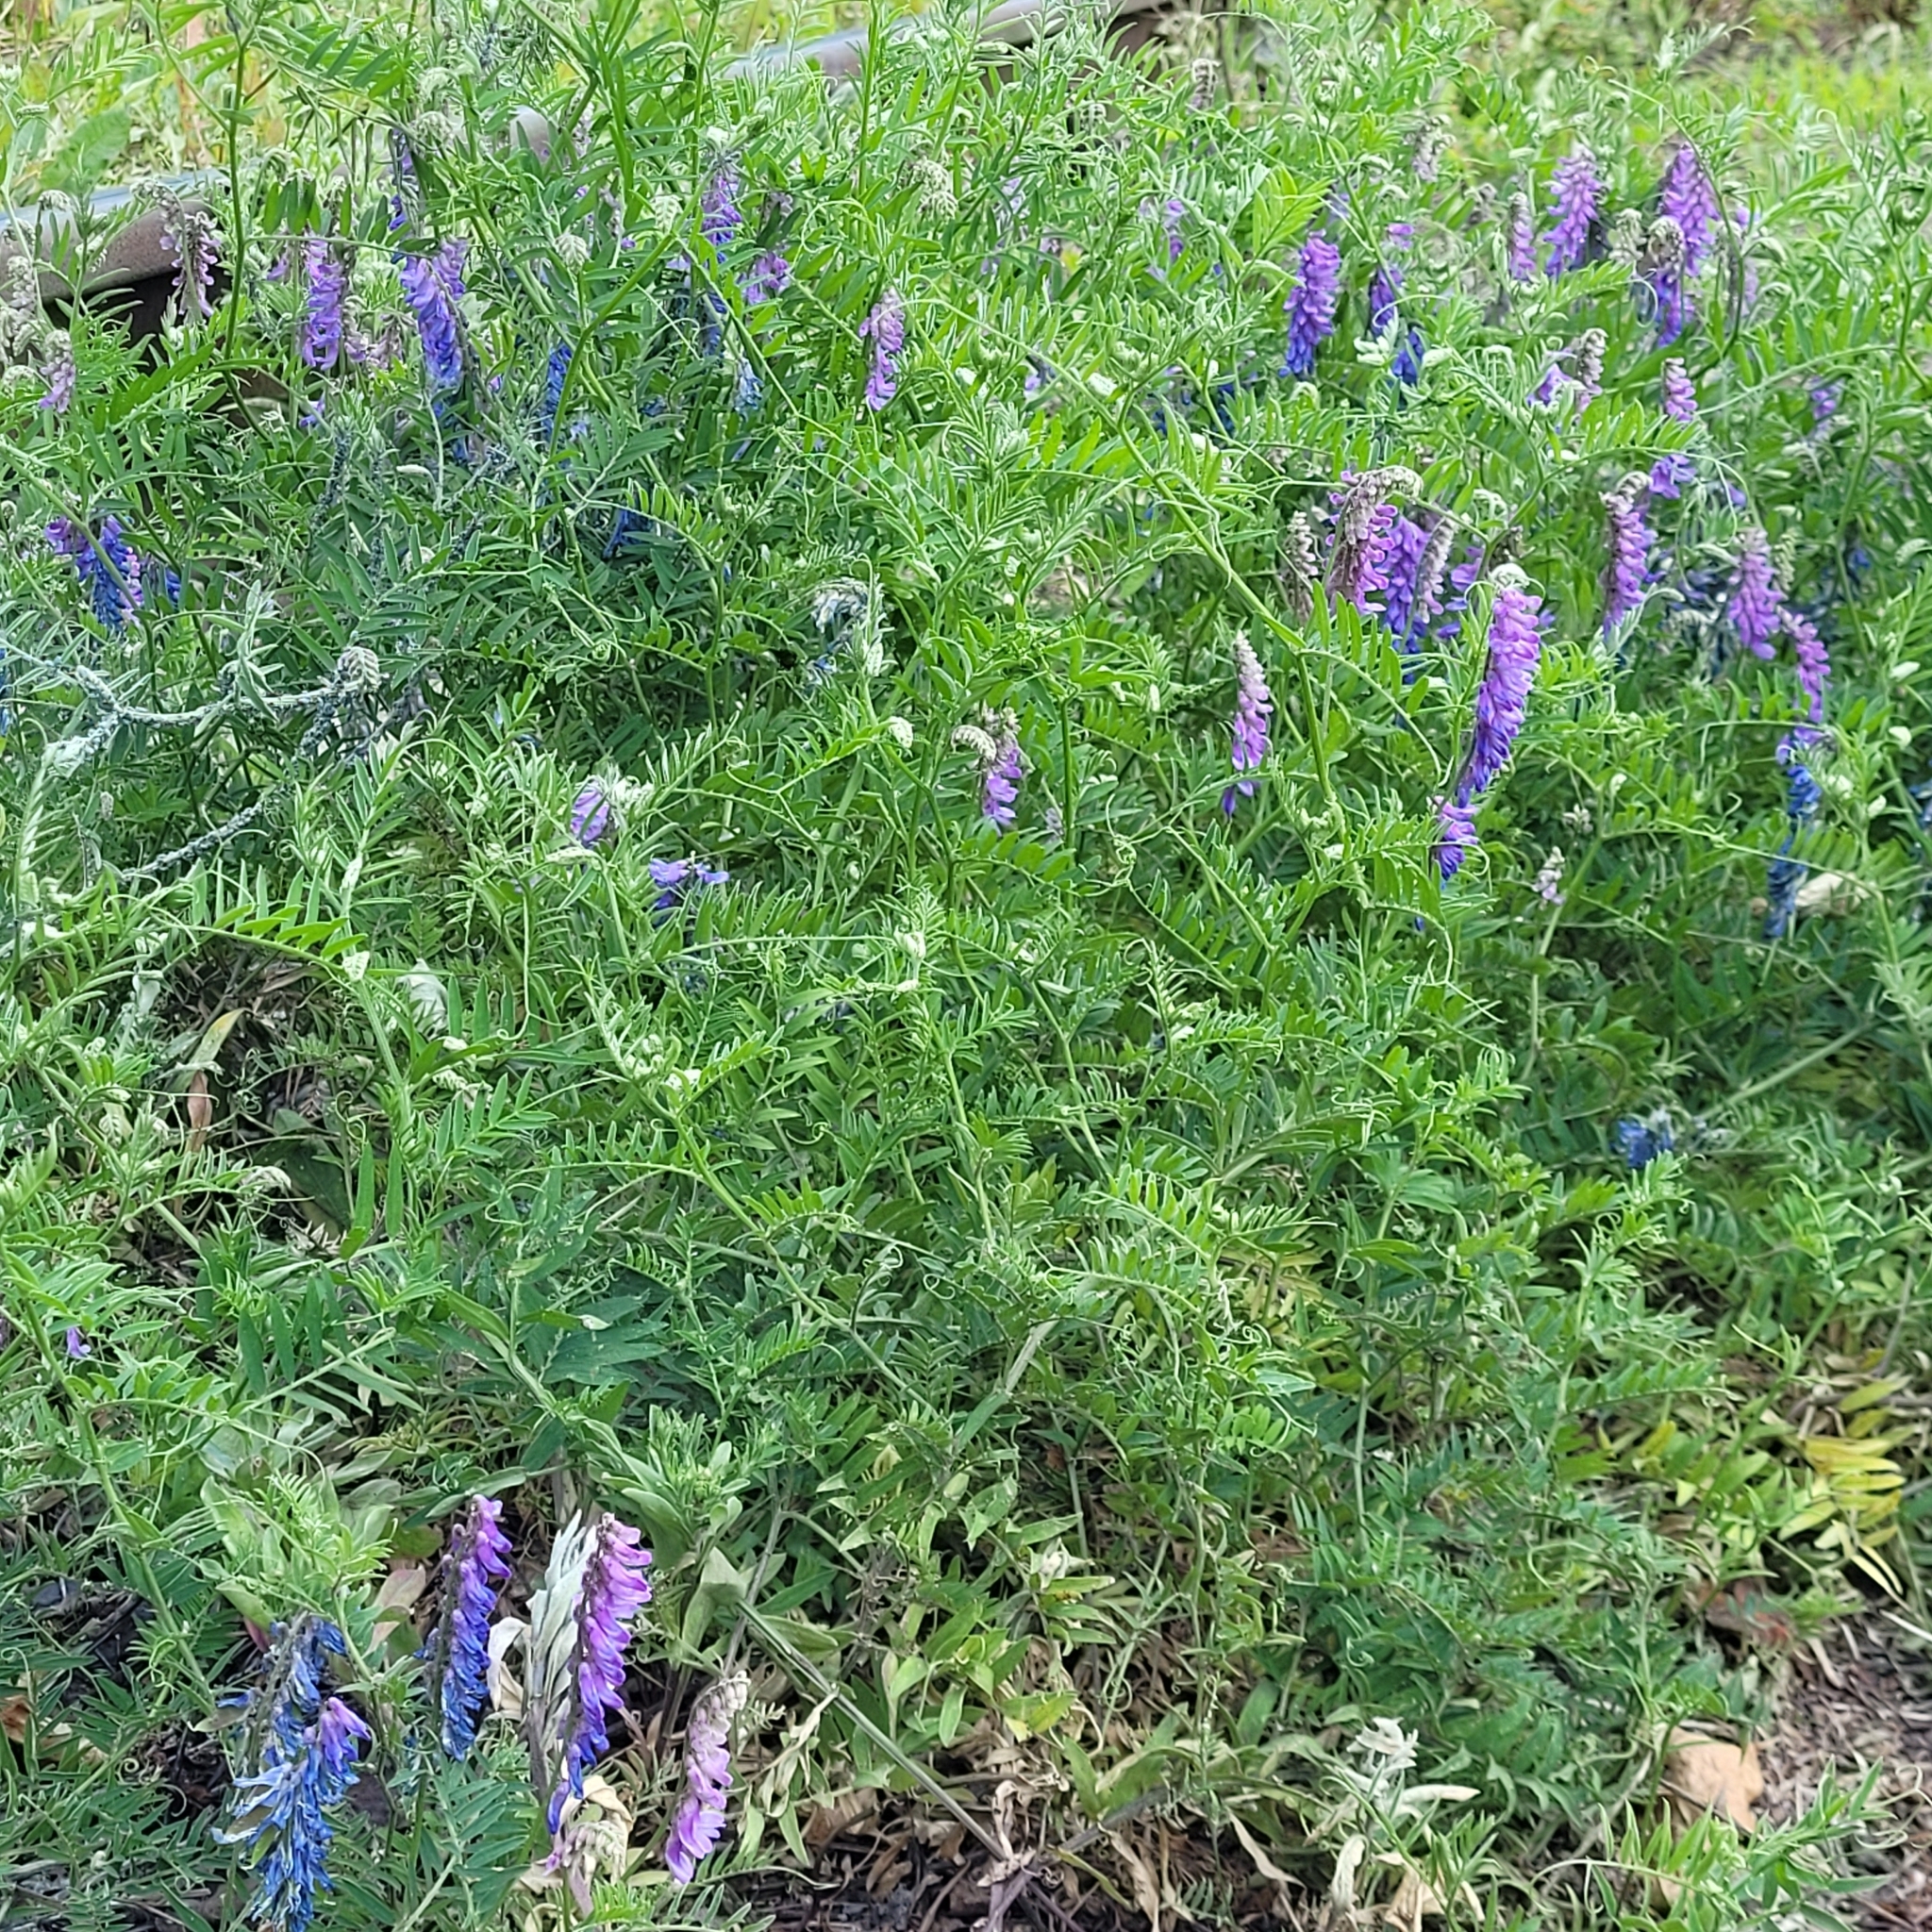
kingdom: Plantae
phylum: Tracheophyta
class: Magnoliopsida
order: Fabales
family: Fabaceae
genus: Vicia
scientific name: Vicia cracca
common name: Bird vetch
